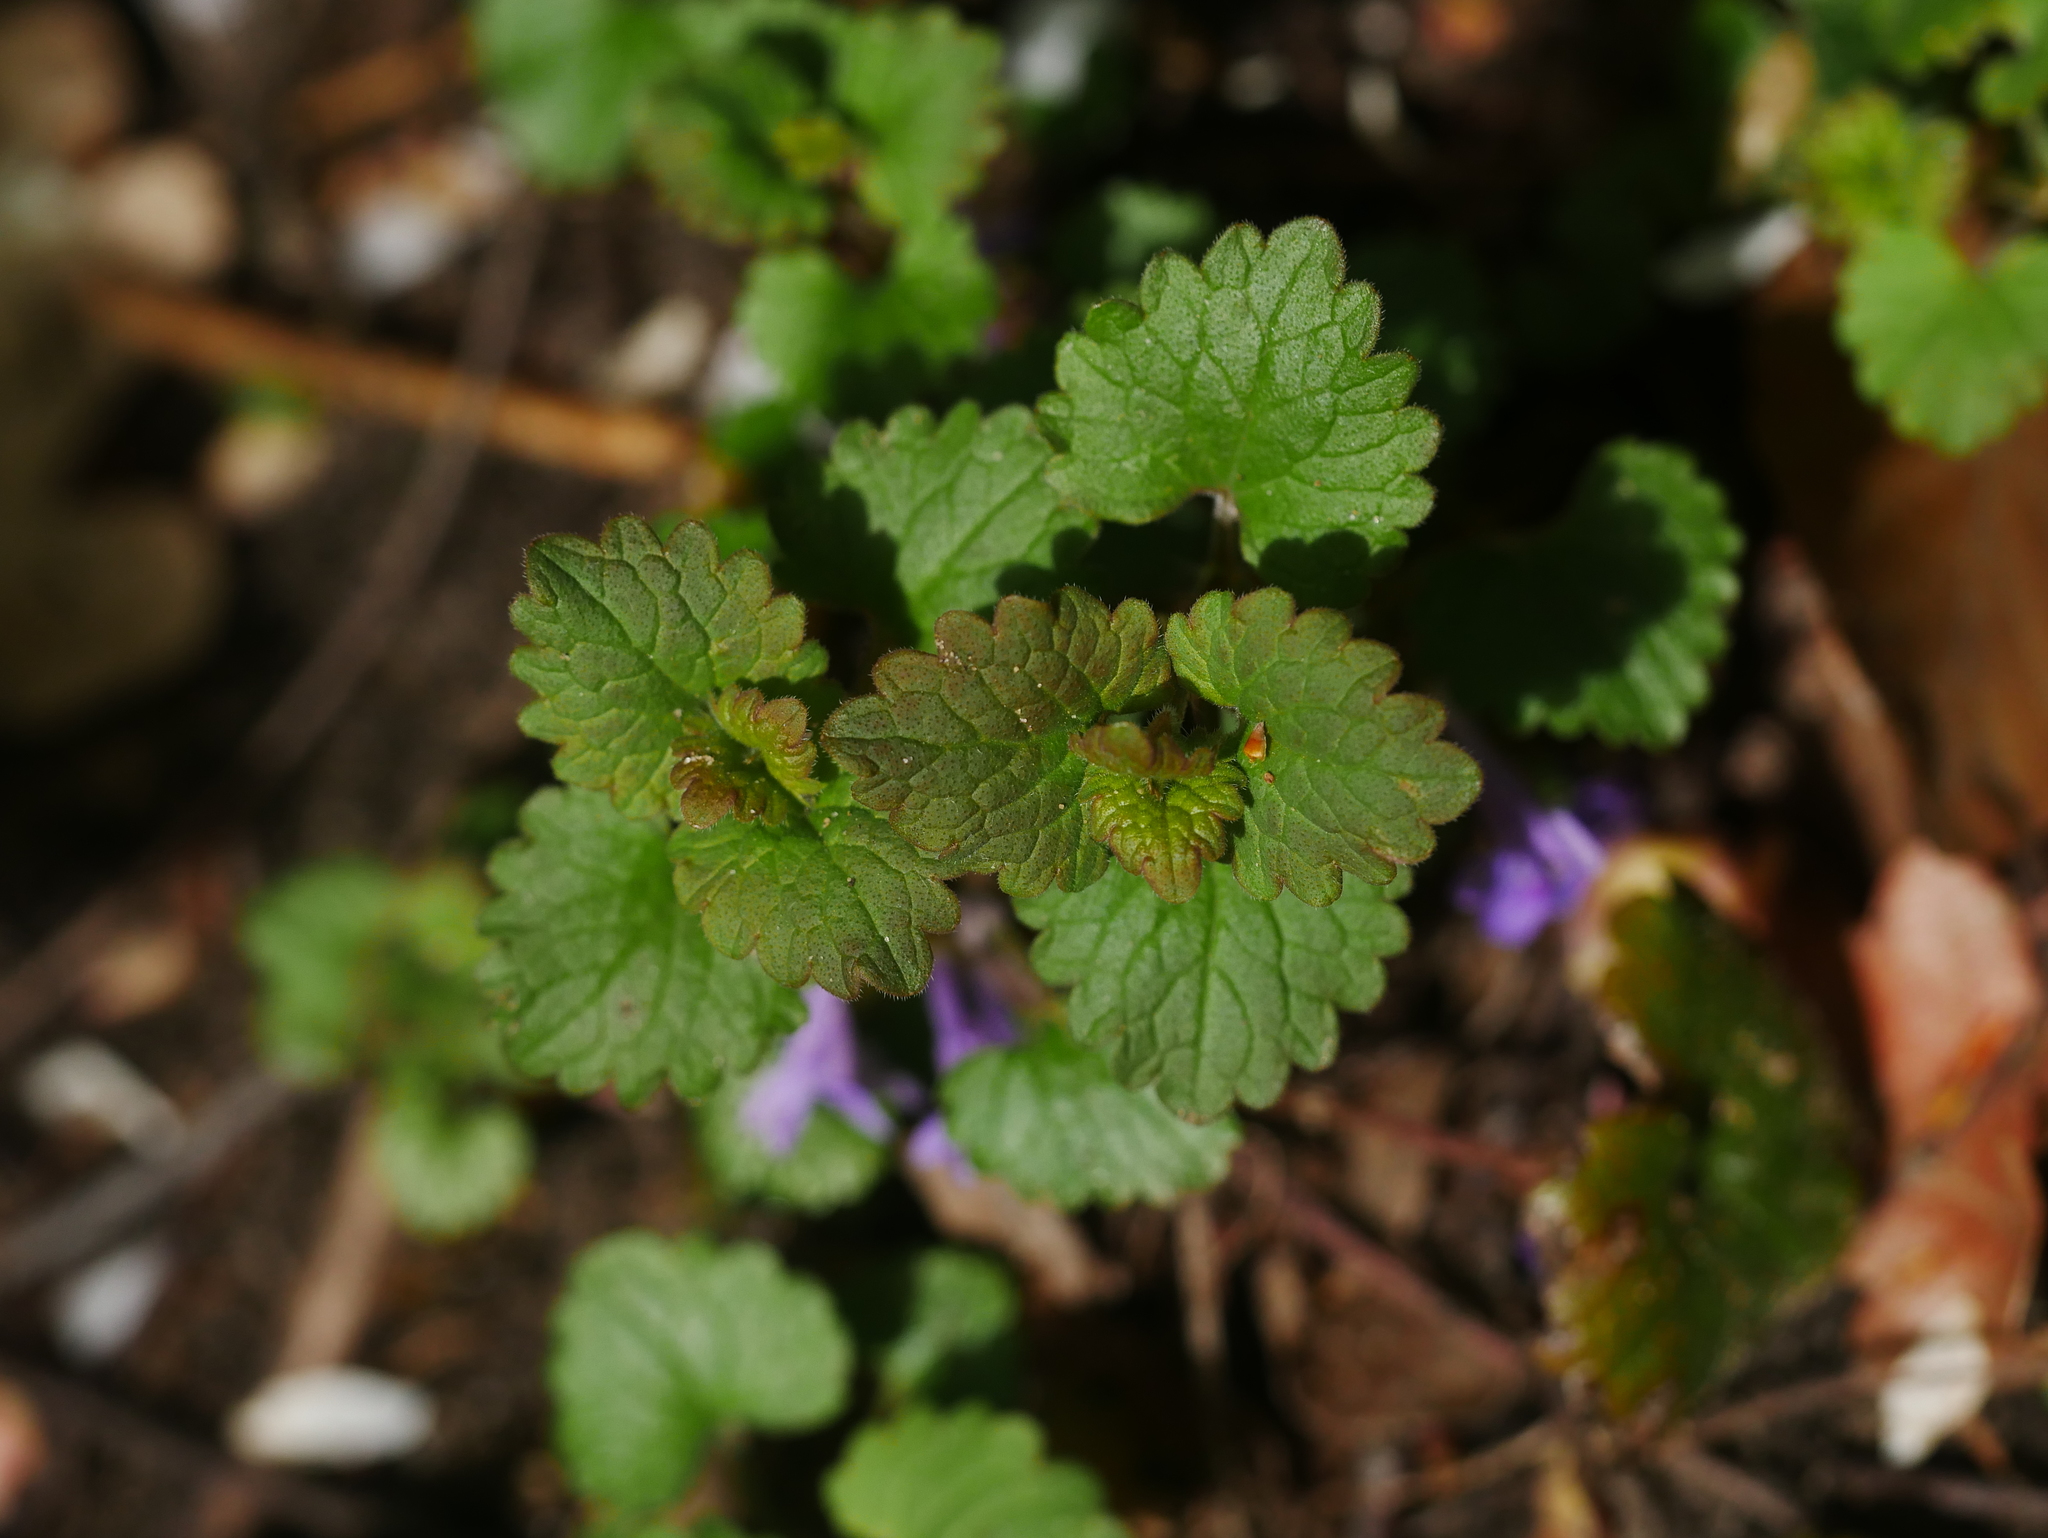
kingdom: Plantae
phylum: Tracheophyta
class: Magnoliopsida
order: Lamiales
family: Lamiaceae
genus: Glechoma
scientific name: Glechoma hederacea
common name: Ground ivy
